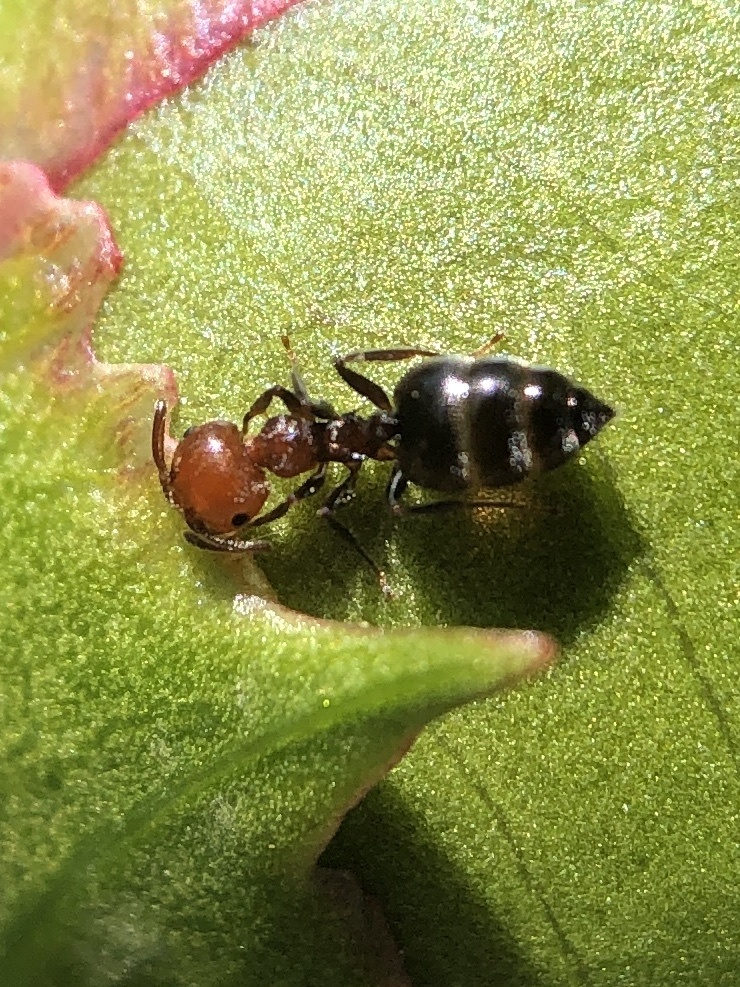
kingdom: Animalia
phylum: Arthropoda
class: Insecta
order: Hymenoptera
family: Formicidae
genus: Crematogaster
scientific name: Crematogaster scutellaris
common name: Fourmi du liège
